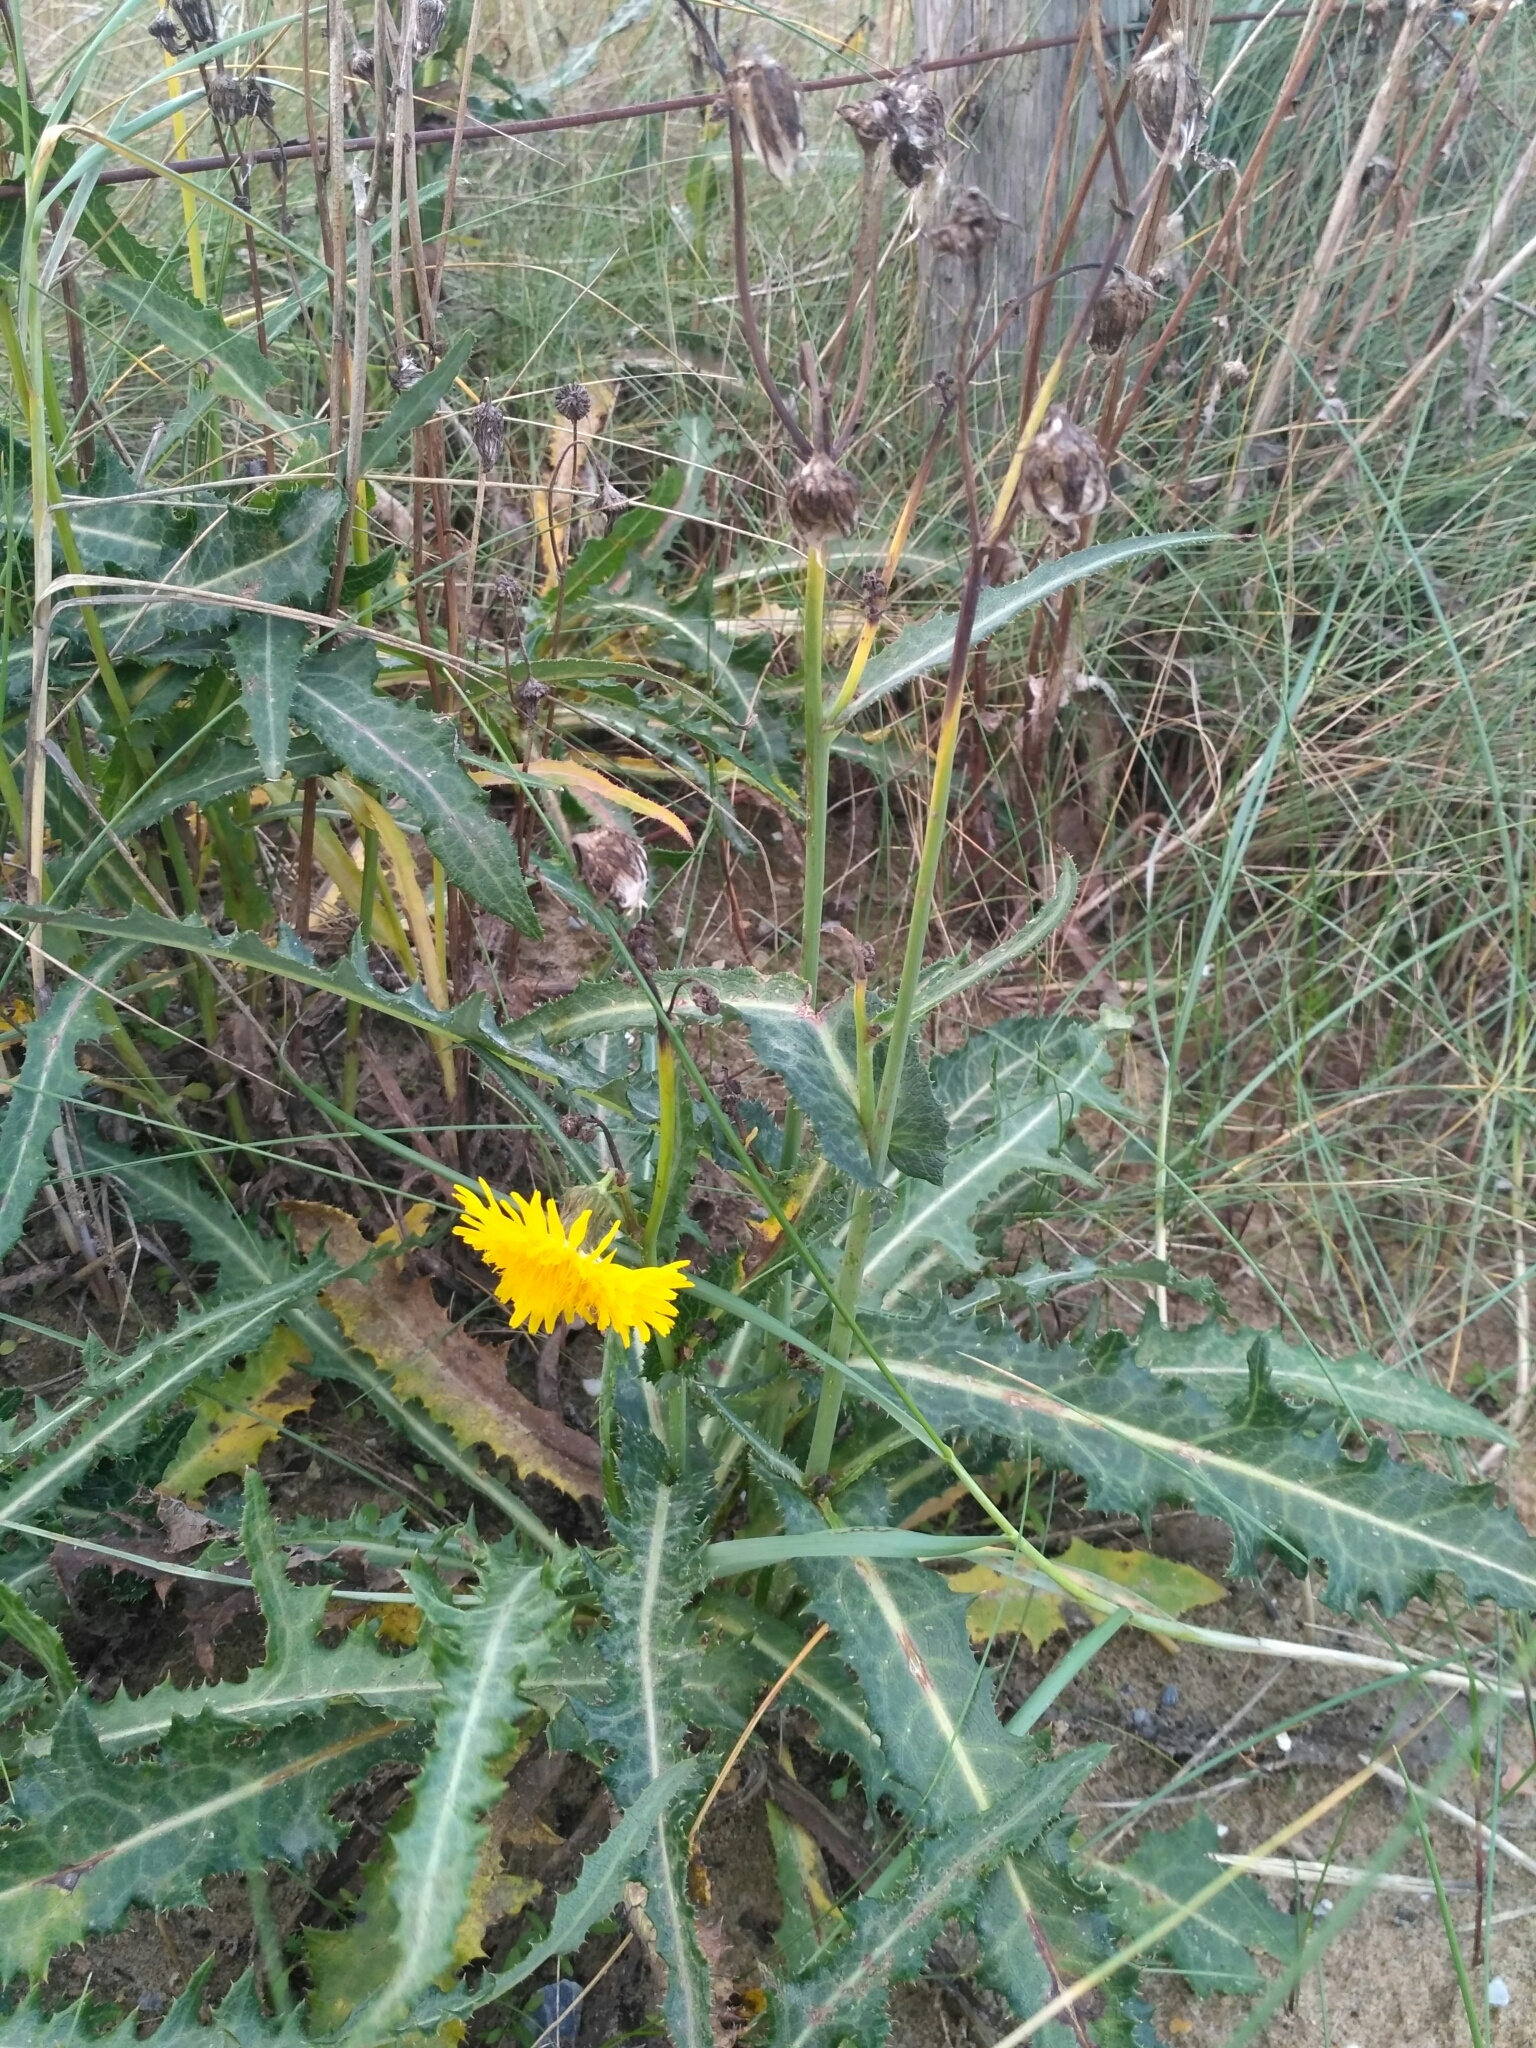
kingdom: Plantae
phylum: Tracheophyta
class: Magnoliopsida
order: Asterales
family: Asteraceae
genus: Sonchus
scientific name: Sonchus arvensis
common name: Perennial sow-thistle
